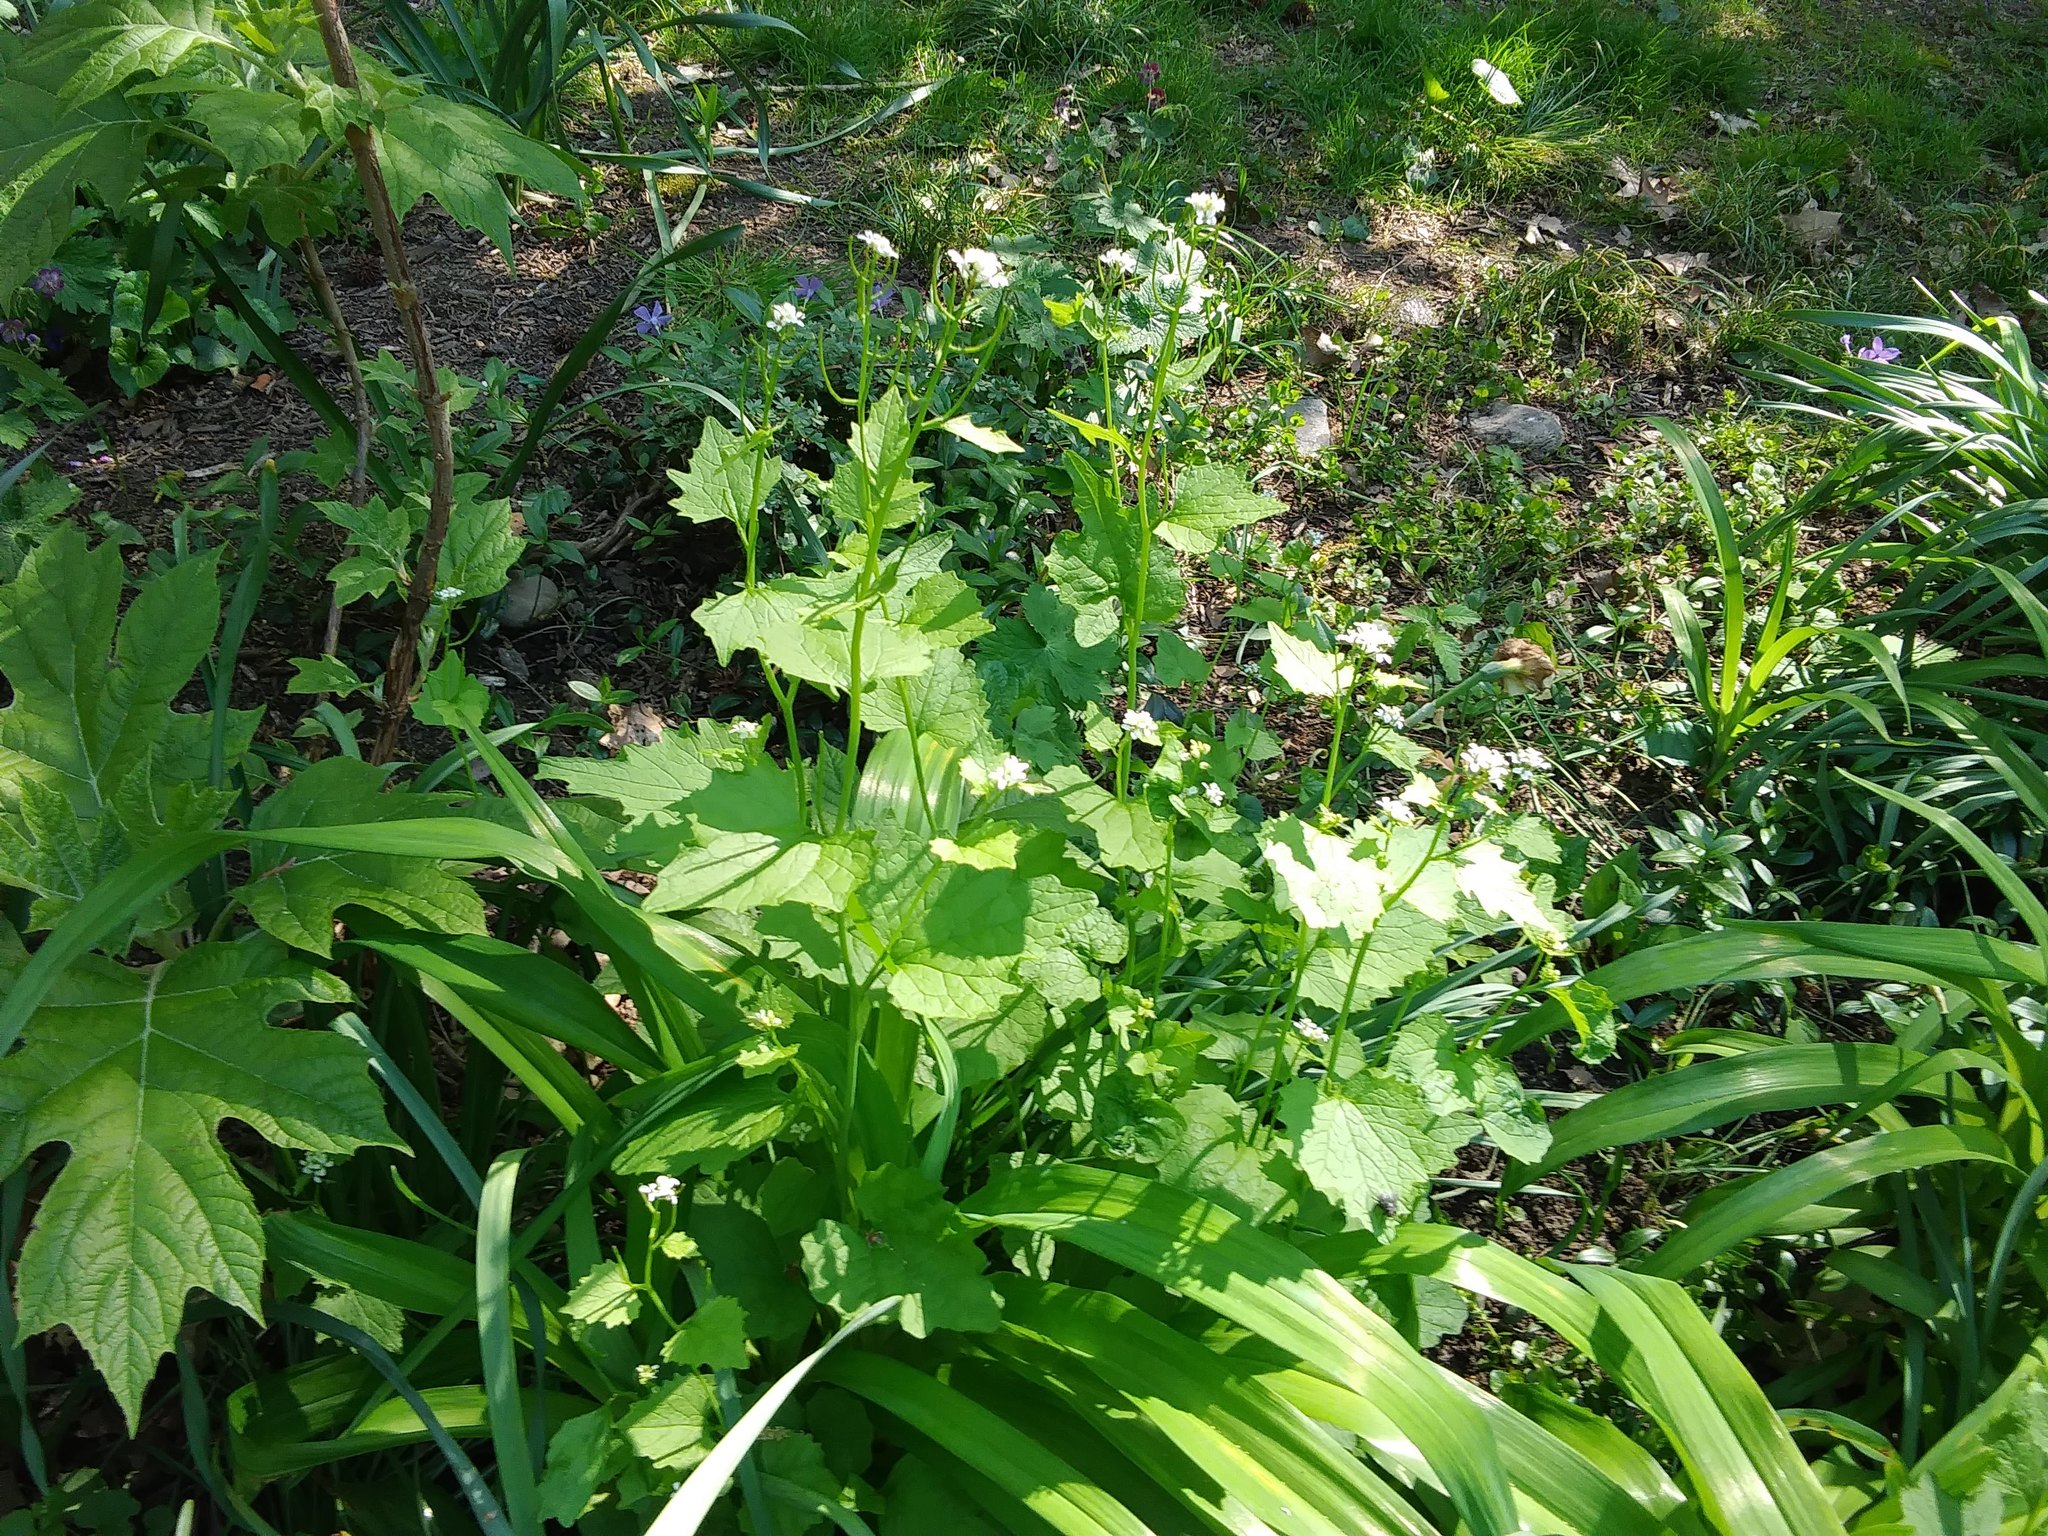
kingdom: Plantae
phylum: Tracheophyta
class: Magnoliopsida
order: Brassicales
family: Brassicaceae
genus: Alliaria
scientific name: Alliaria petiolata
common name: Garlic mustard
